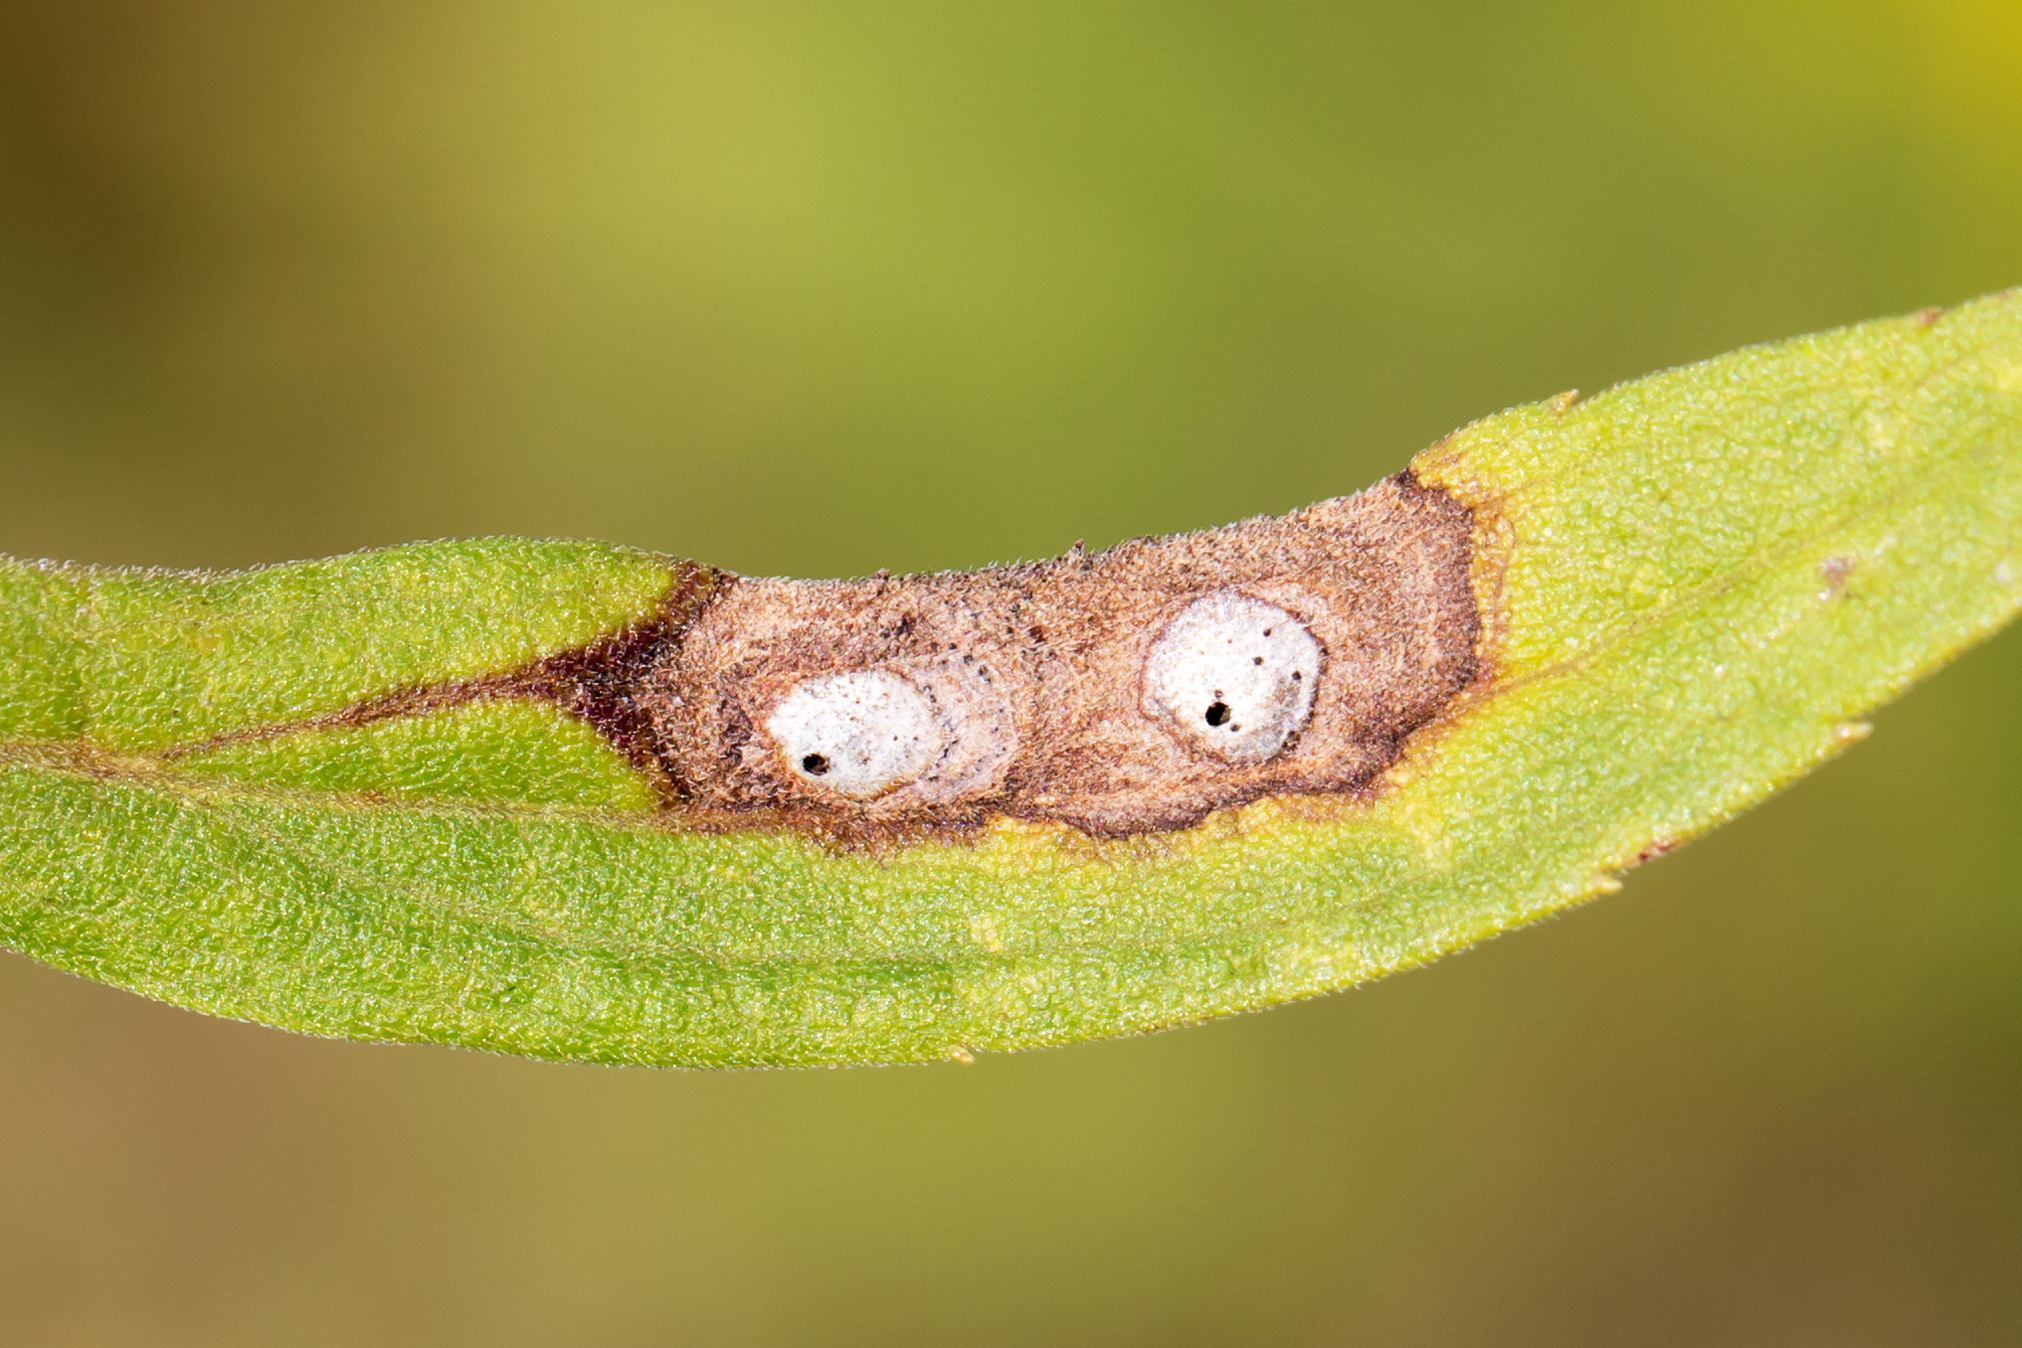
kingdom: Animalia
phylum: Arthropoda
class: Insecta
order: Diptera
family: Cecidomyiidae
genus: Asteromyia
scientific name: Asteromyia carbonifera
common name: Carbonifera goldenrod gall midge
